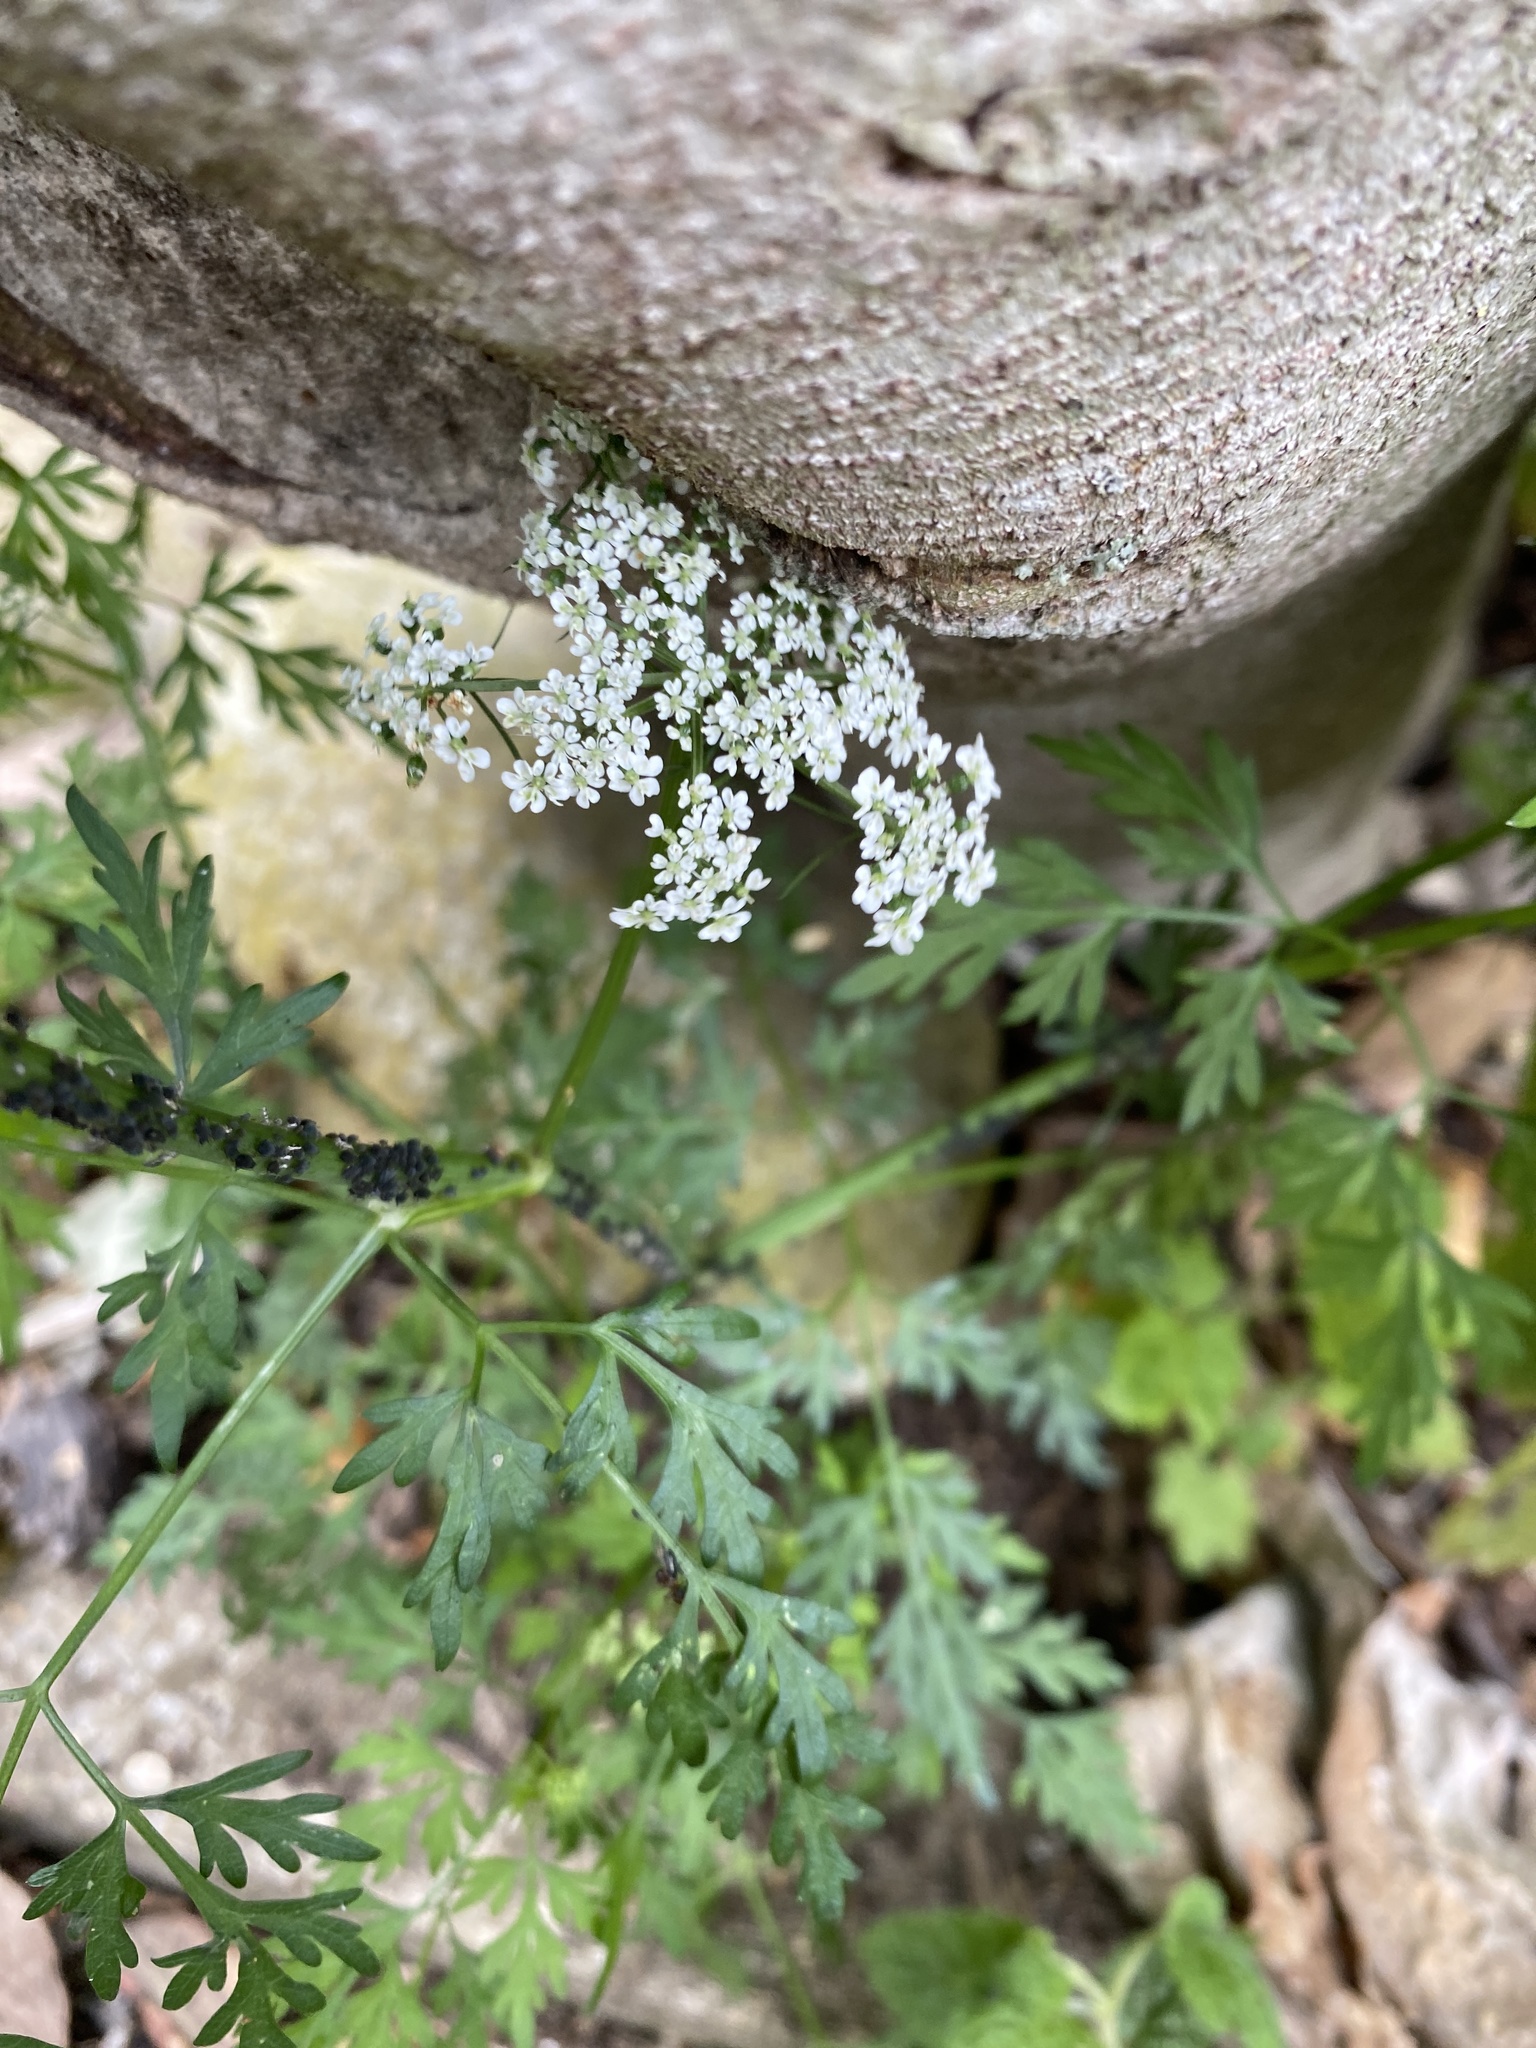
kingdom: Plantae
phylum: Tracheophyta
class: Magnoliopsida
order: Apiales
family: Apiaceae
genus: Aethusa
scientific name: Aethusa cynapium
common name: Fool's parsley
